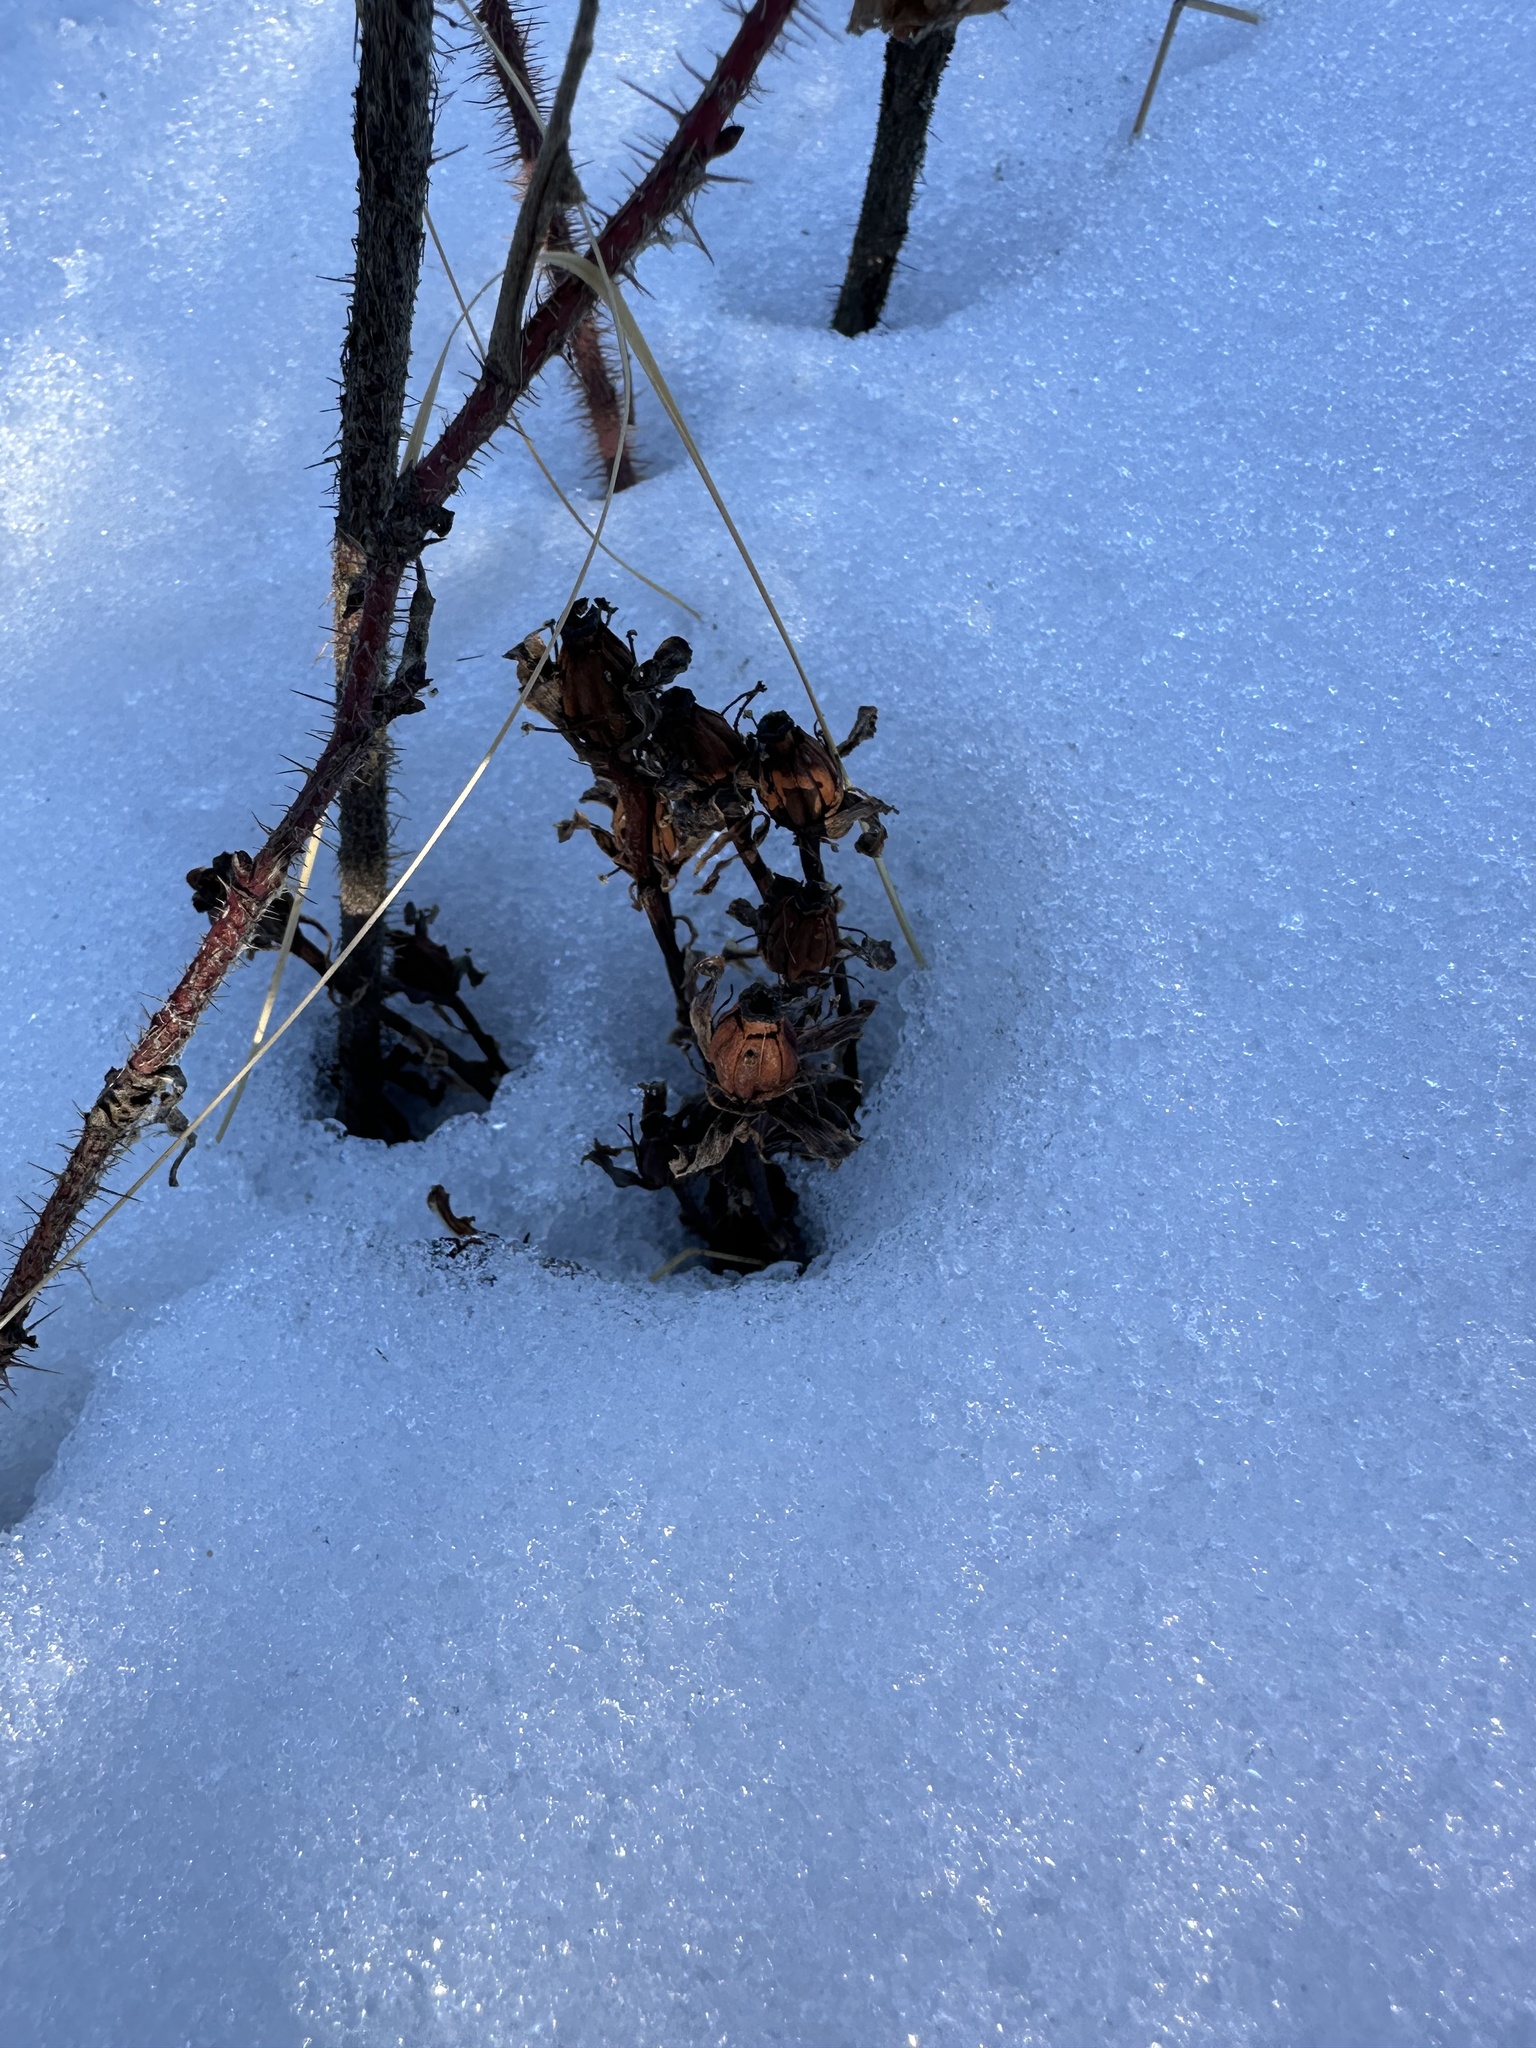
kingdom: Plantae
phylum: Tracheophyta
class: Magnoliopsida
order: Ericales
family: Ericaceae
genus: Monotropa
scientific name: Monotropa uniflora
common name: Convulsion root
